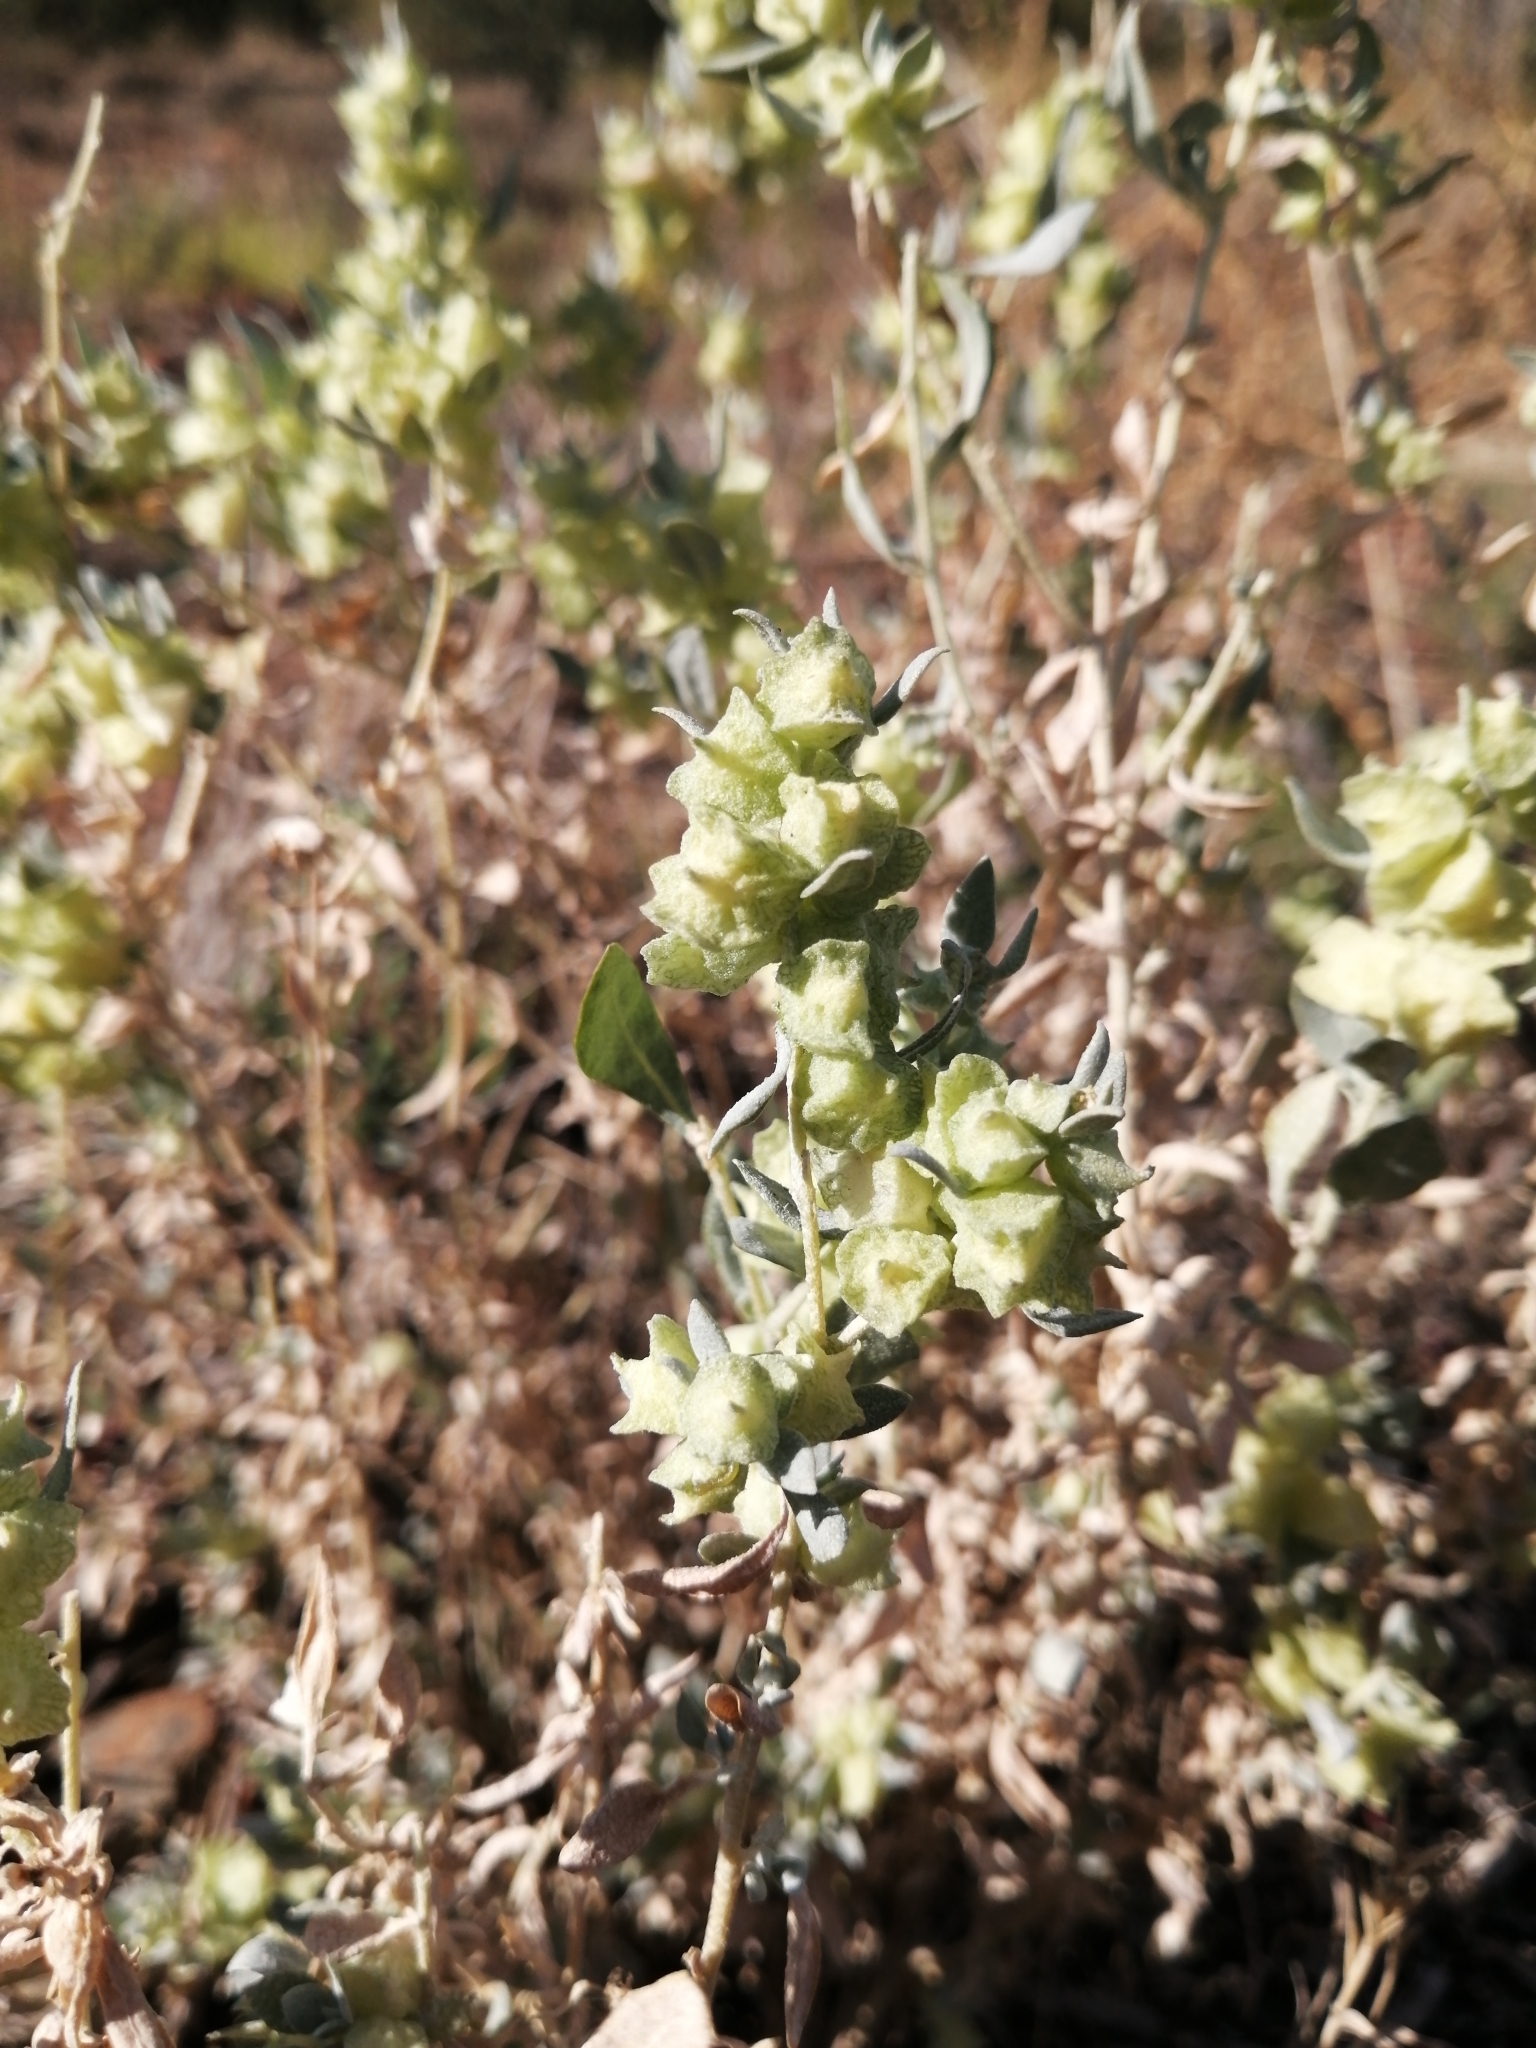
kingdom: Plantae
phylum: Tracheophyta
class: Magnoliopsida
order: Caryophyllales
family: Amaranthaceae
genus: Atriplex
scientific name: Atriplex lindleyi
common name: Lindley's saltbush
